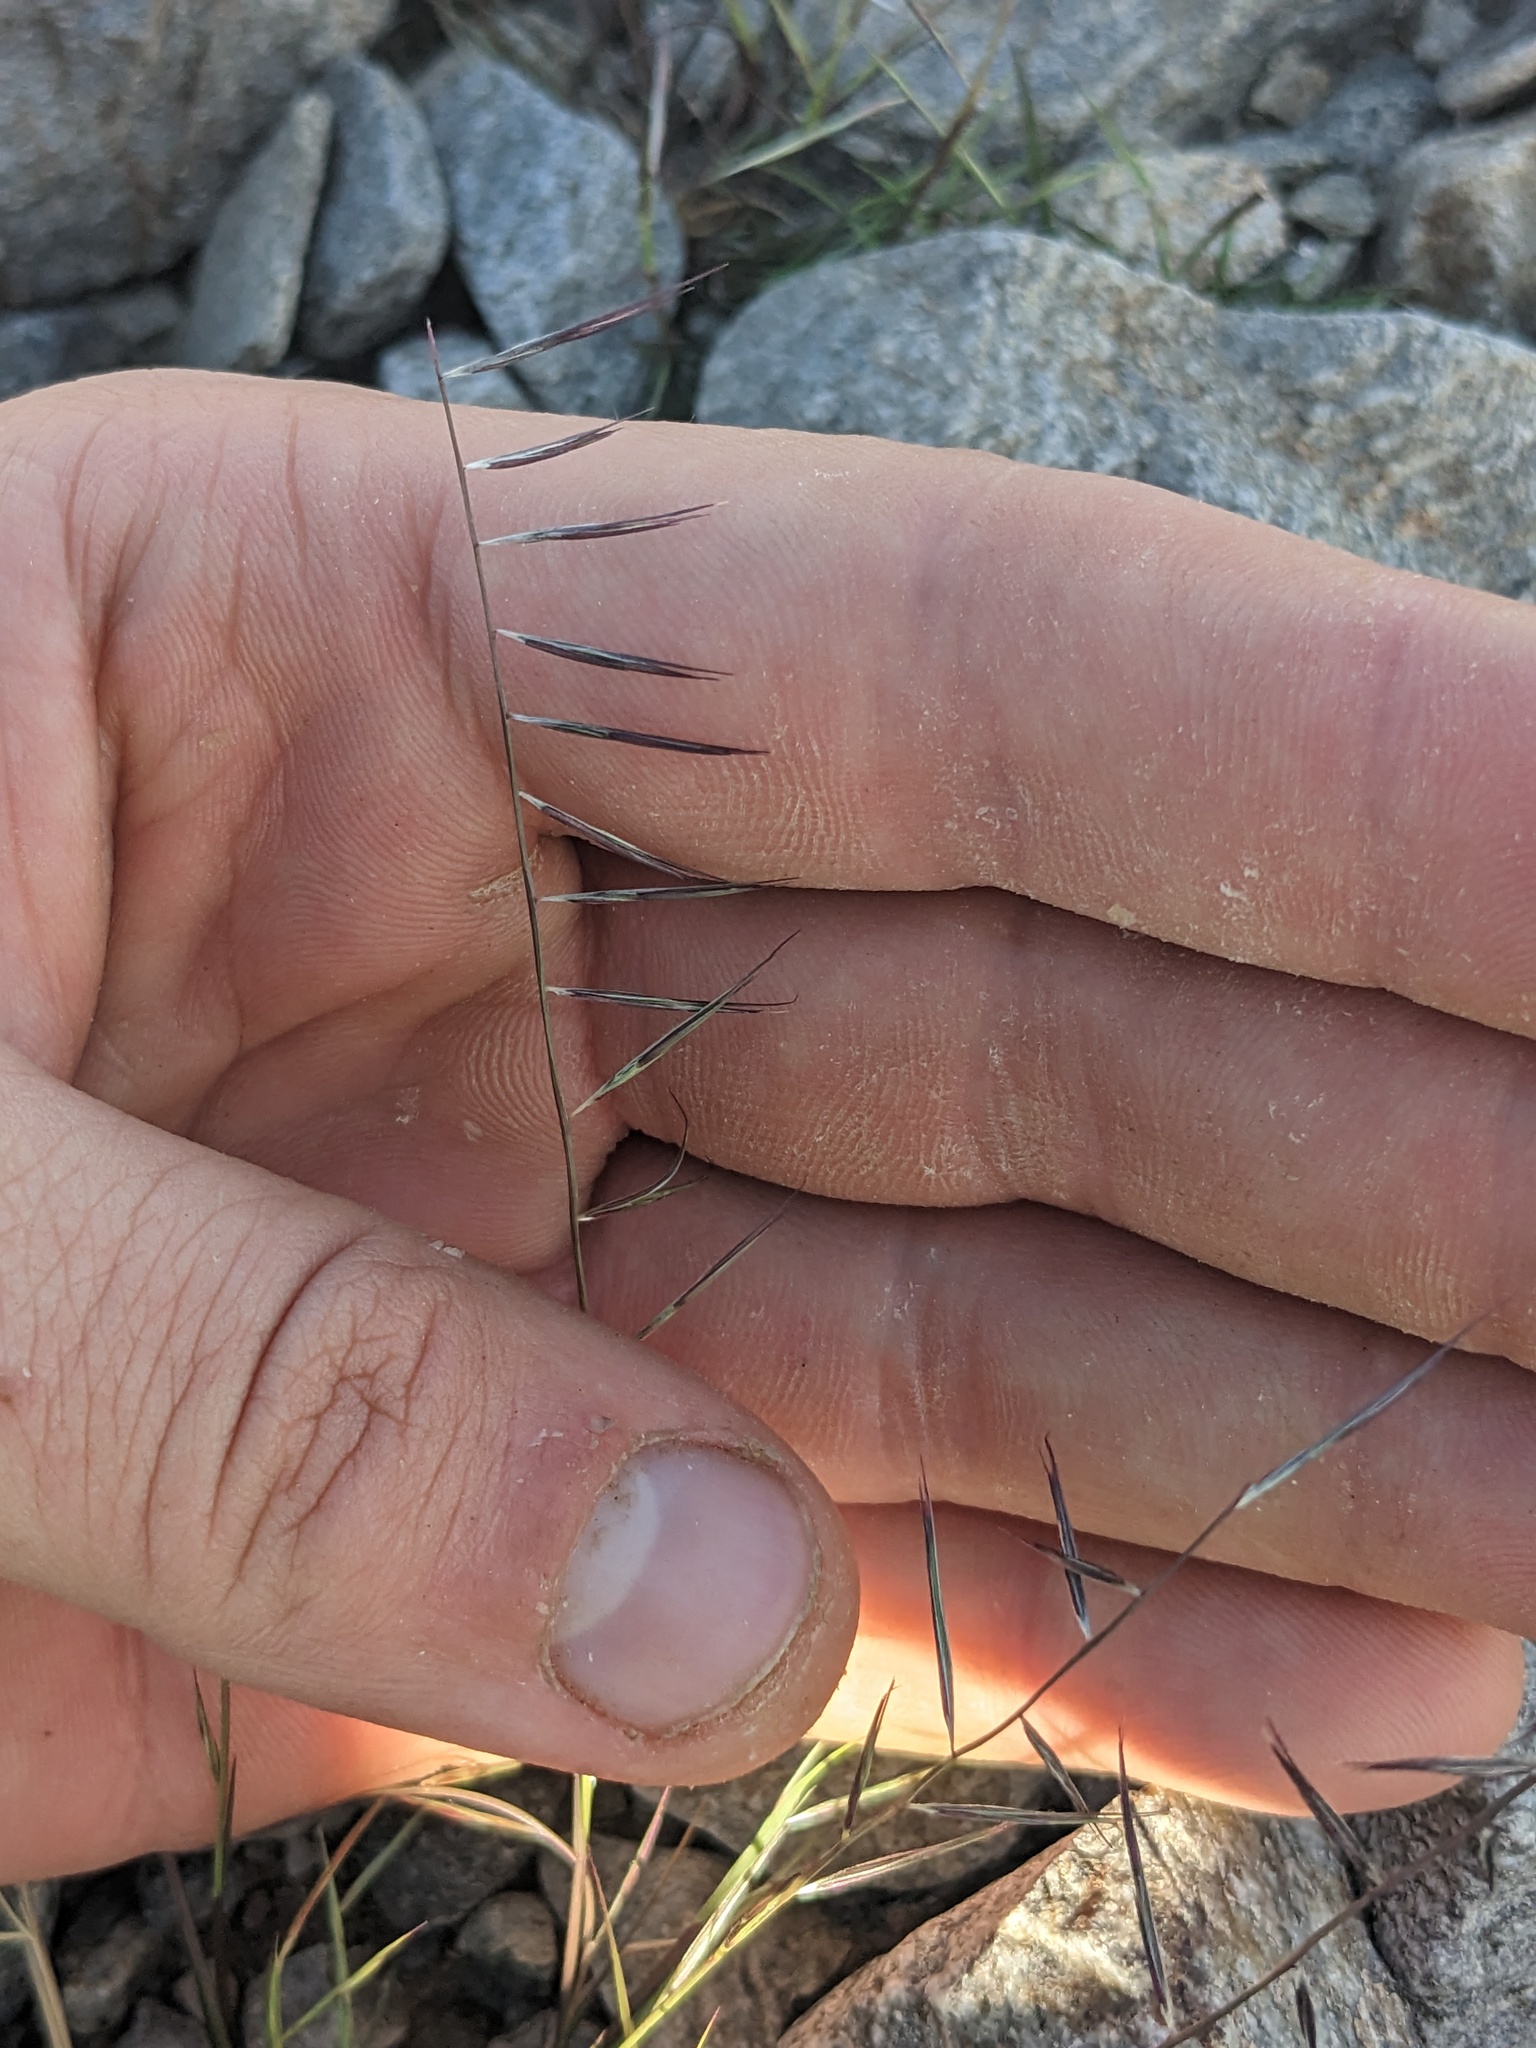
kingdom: Plantae
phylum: Tracheophyta
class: Liliopsida
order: Poales
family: Poaceae
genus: Bouteloua
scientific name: Bouteloua aristidoides
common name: Needle grama
